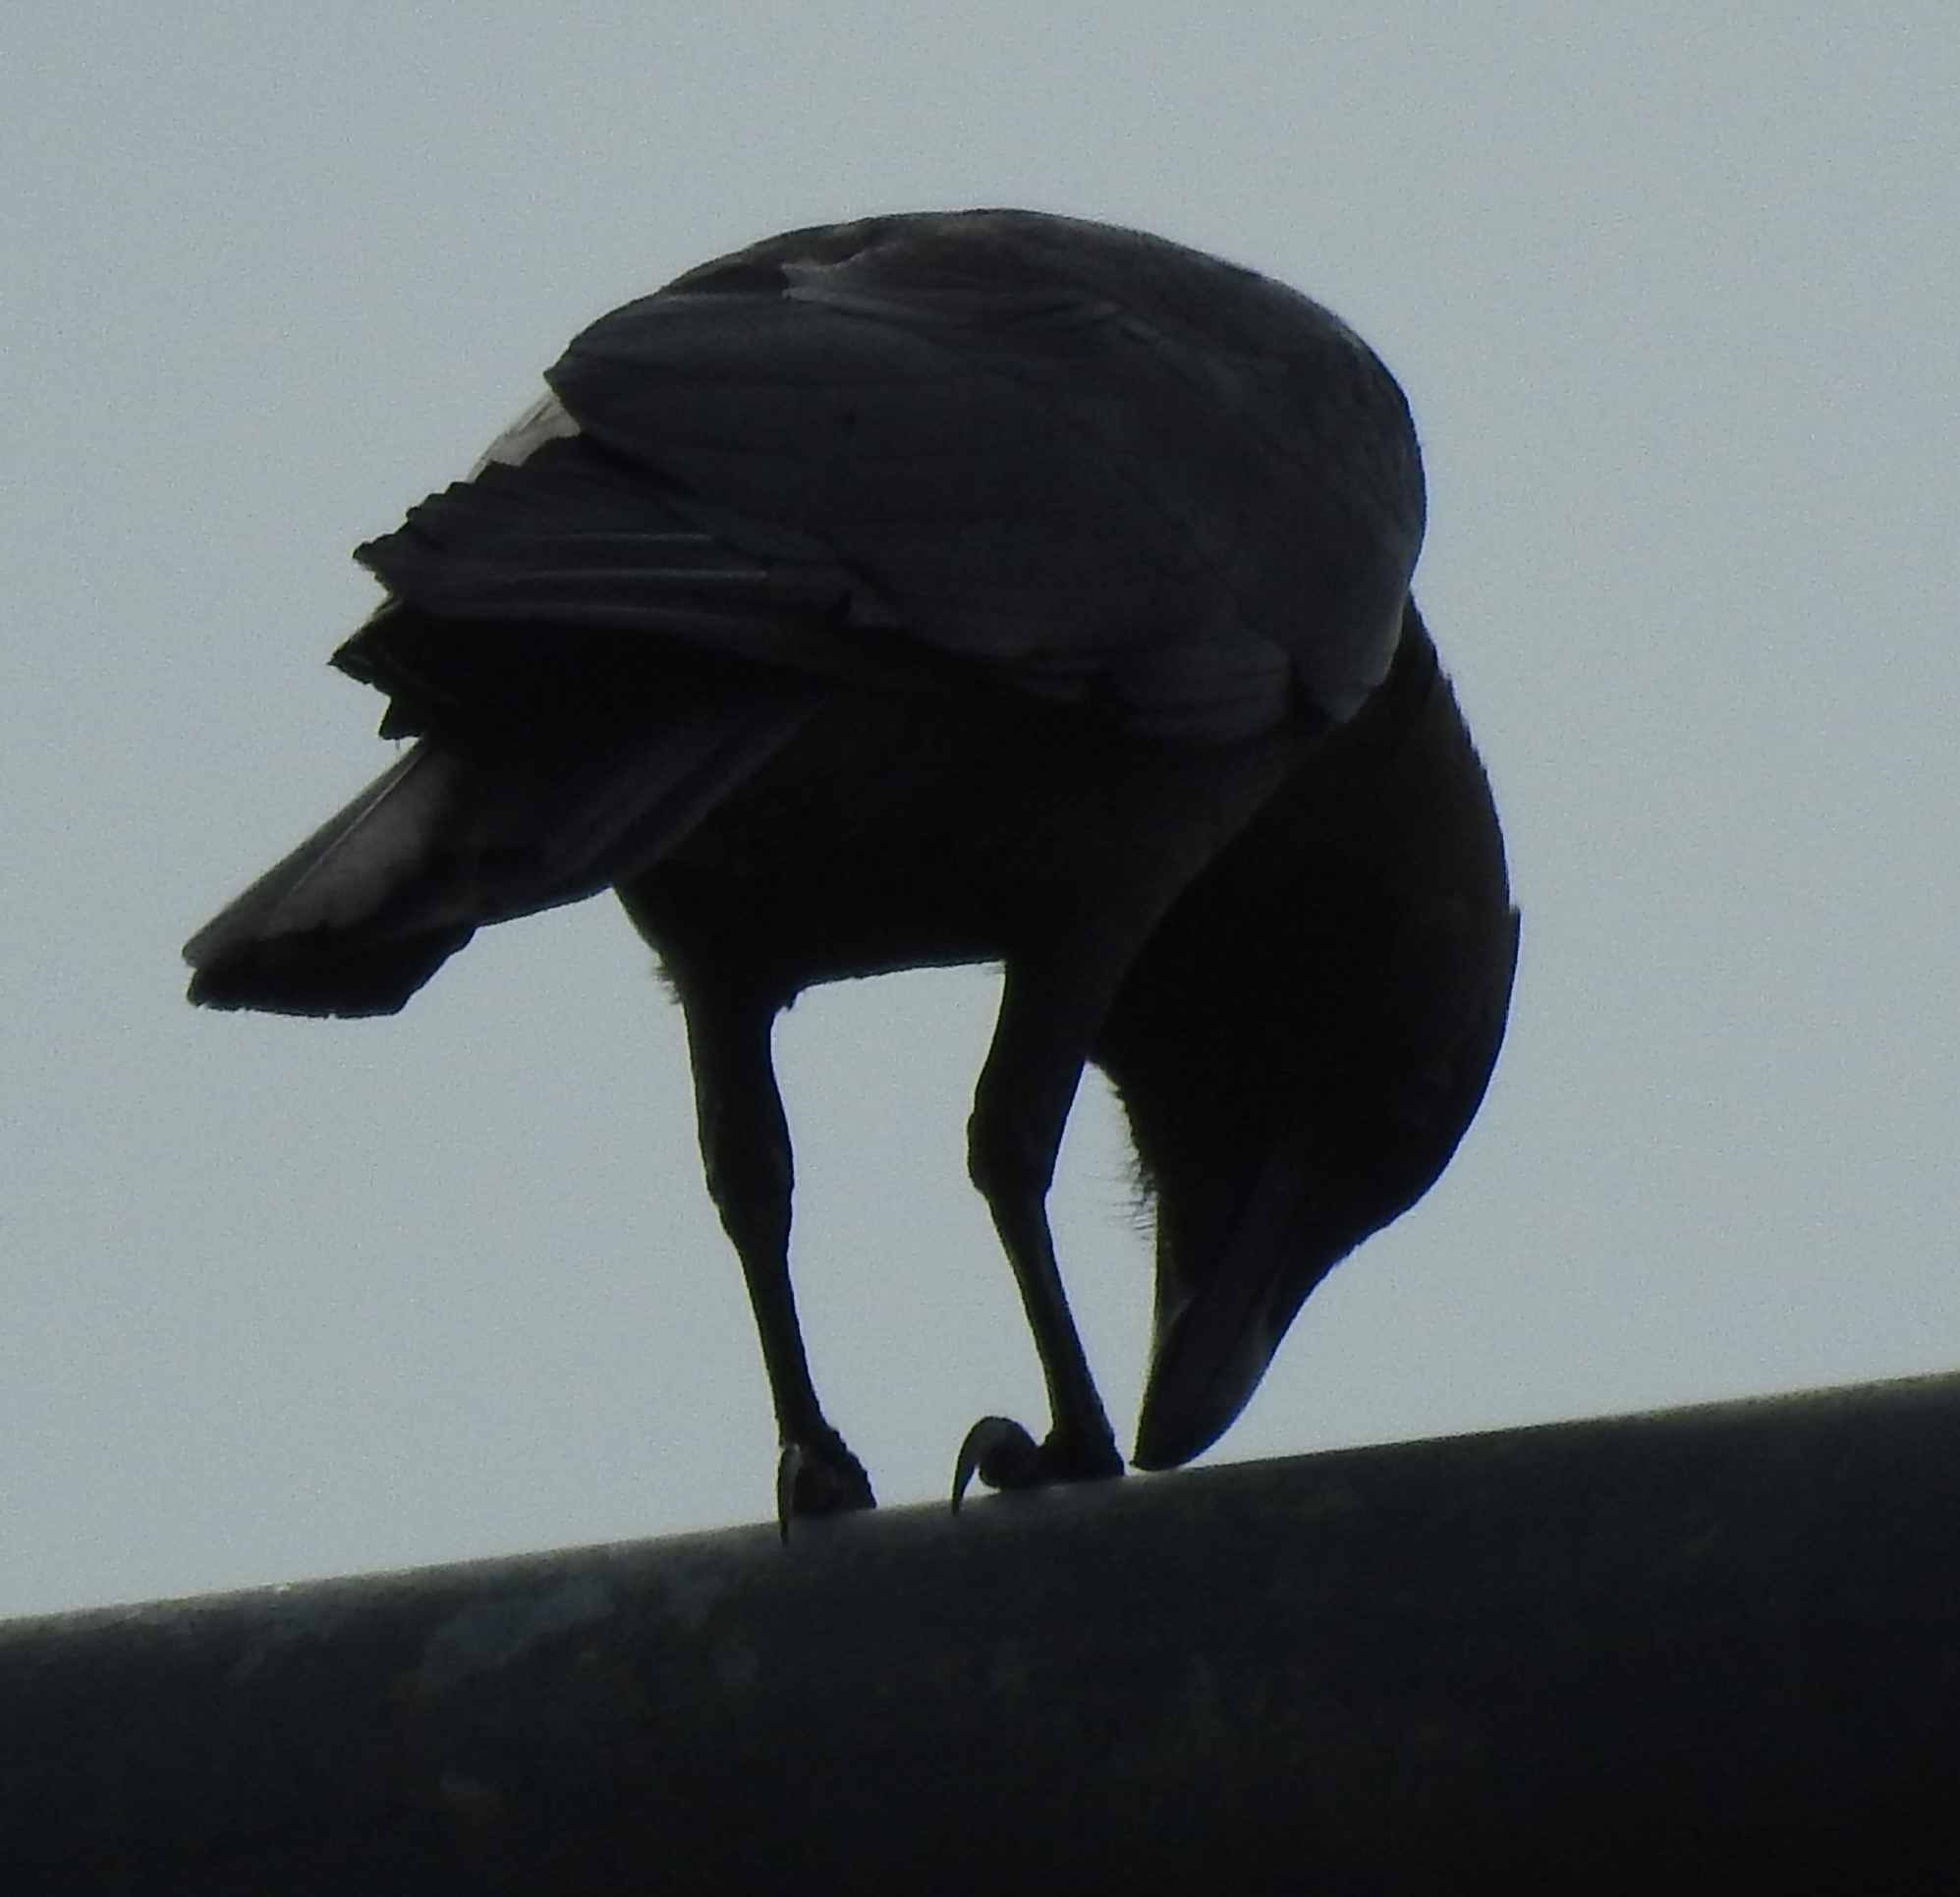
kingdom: Animalia
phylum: Chordata
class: Aves
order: Passeriformes
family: Corvidae
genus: Corvus
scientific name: Corvus splendens
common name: House crow
